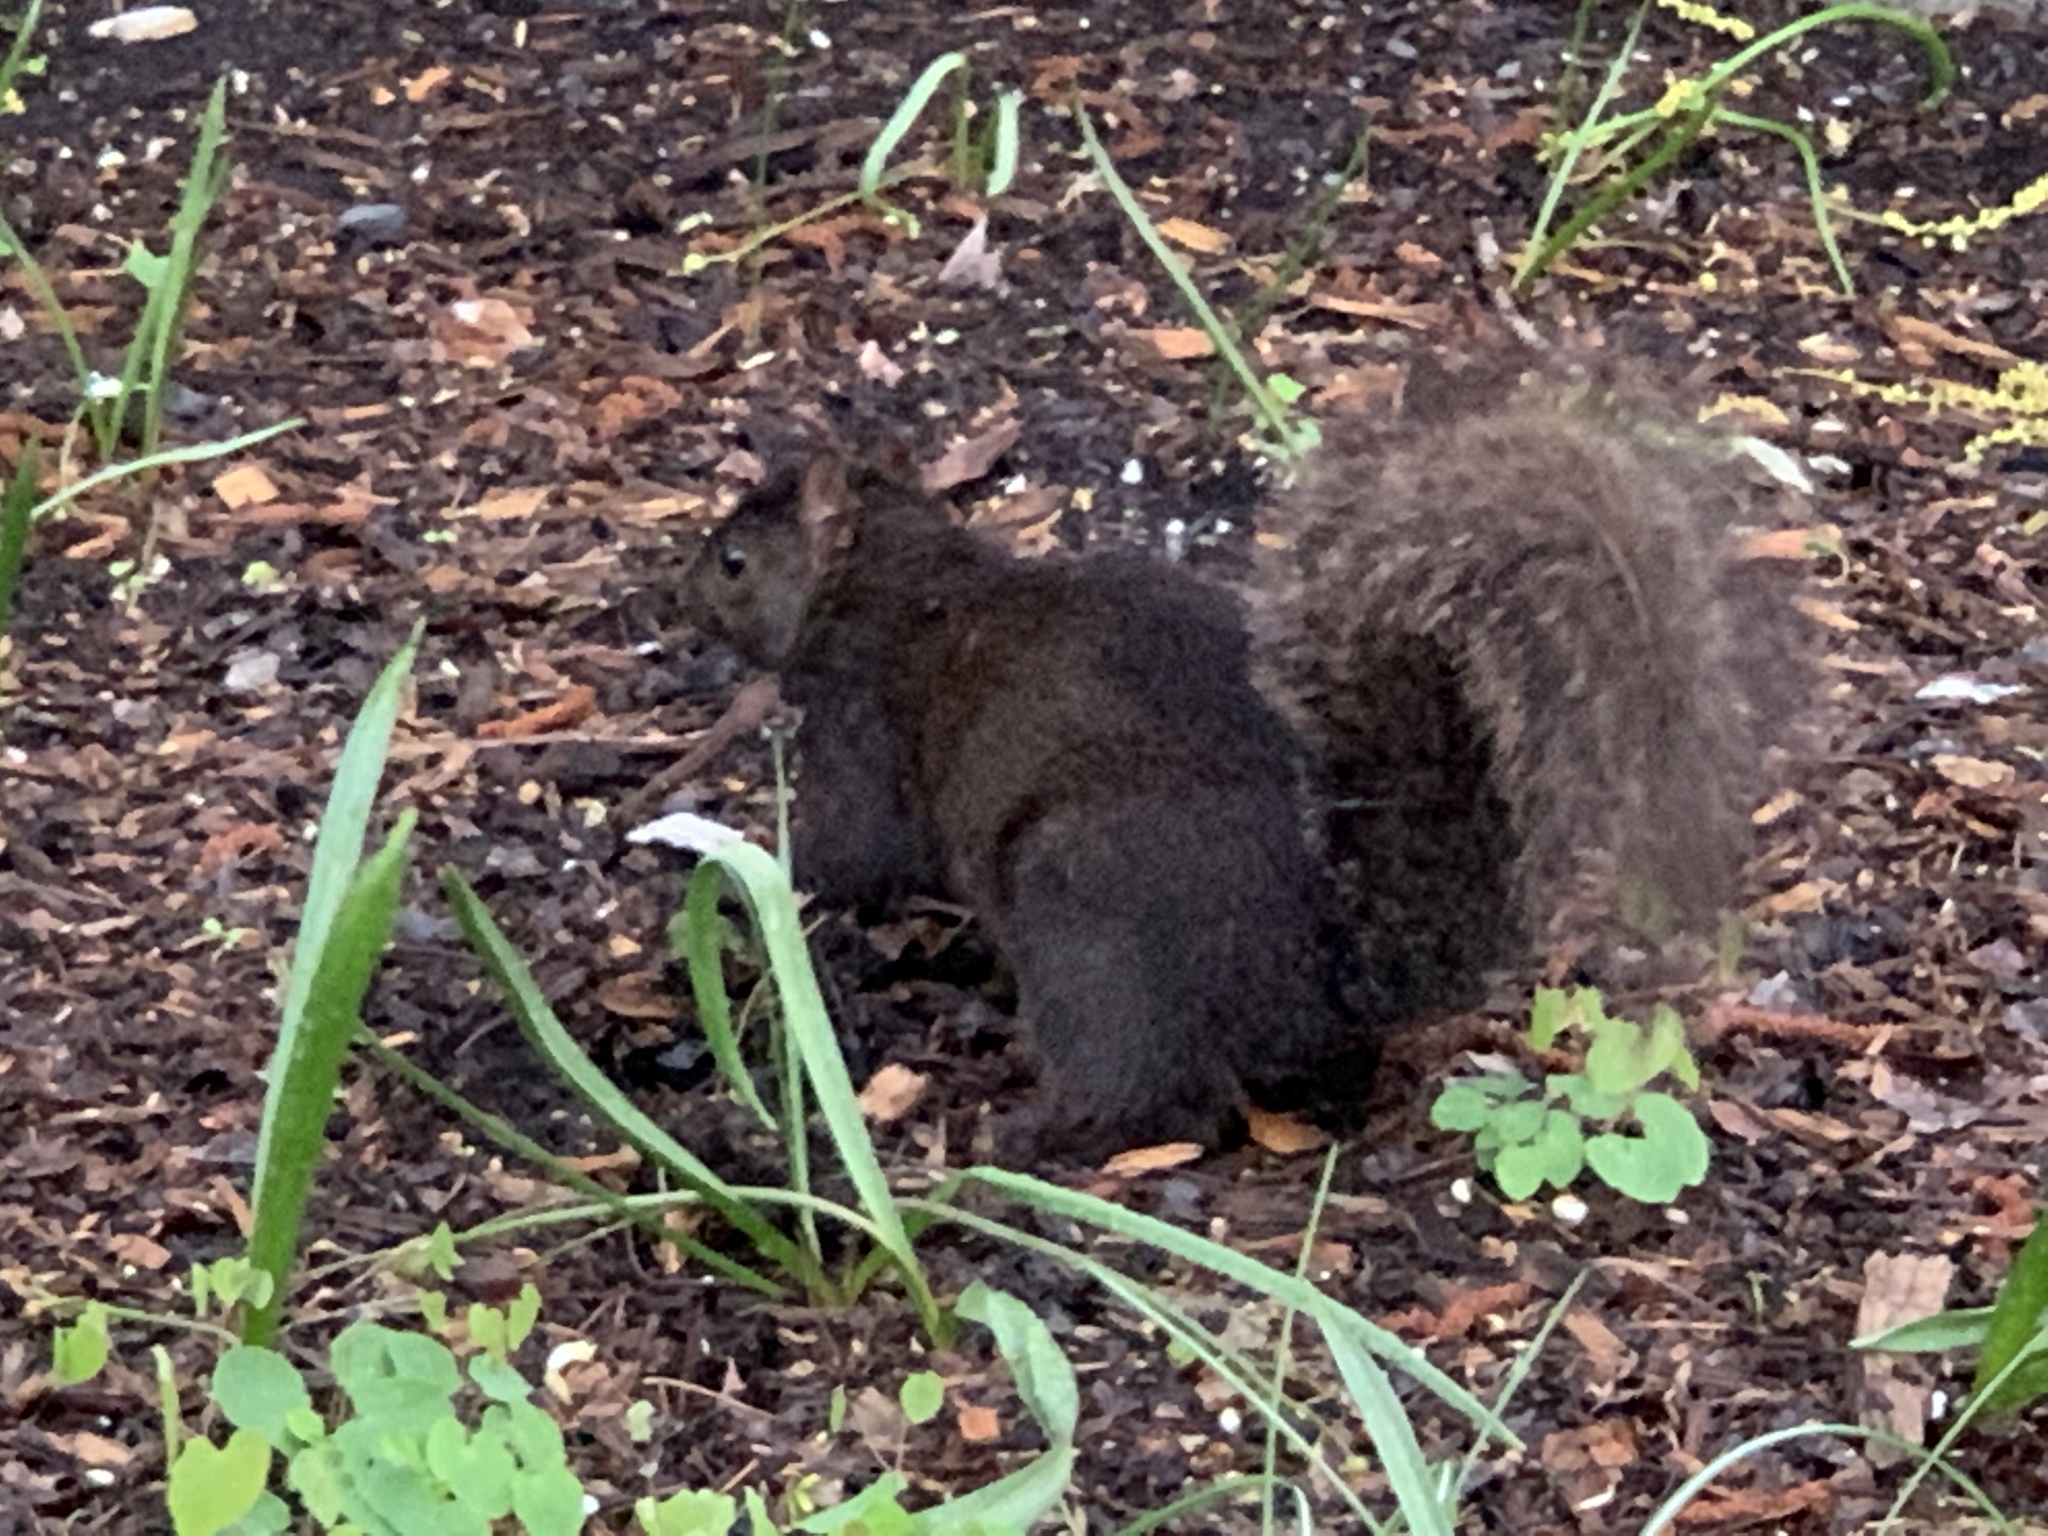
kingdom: Animalia
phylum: Chordata
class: Mammalia
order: Rodentia
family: Sciuridae
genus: Sciurus
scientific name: Sciurus carolinensis
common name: Eastern gray squirrel
